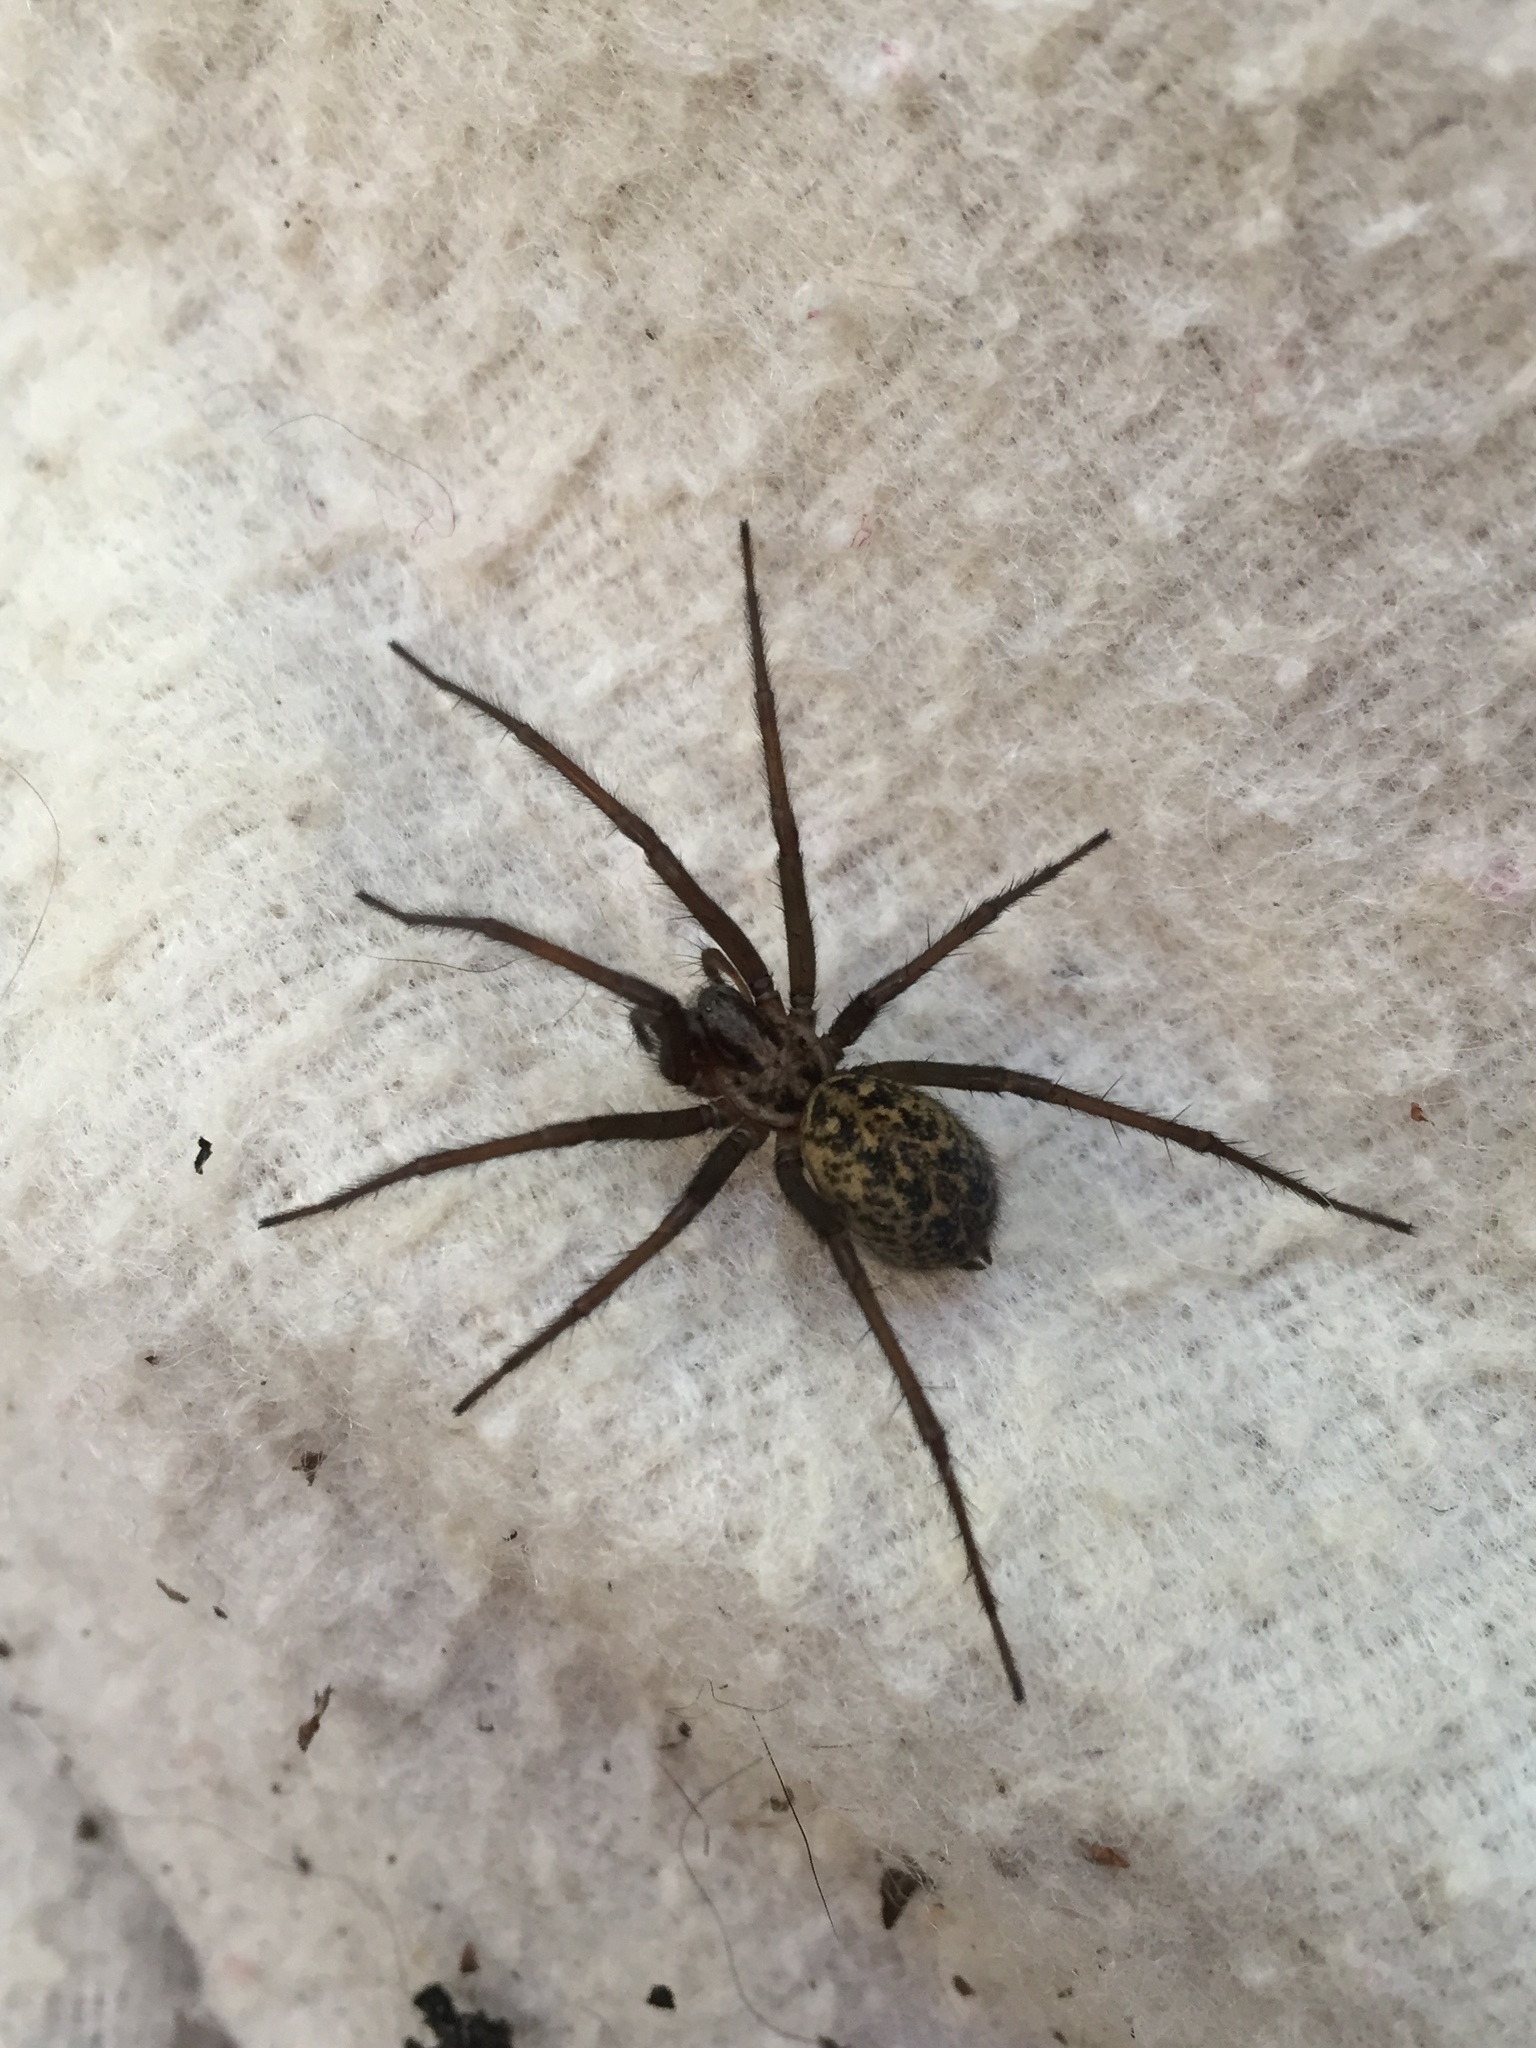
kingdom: Animalia
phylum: Arthropoda
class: Arachnida
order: Araneae
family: Agelenidae
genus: Eratigena
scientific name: Eratigena duellica
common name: Giant house spider
